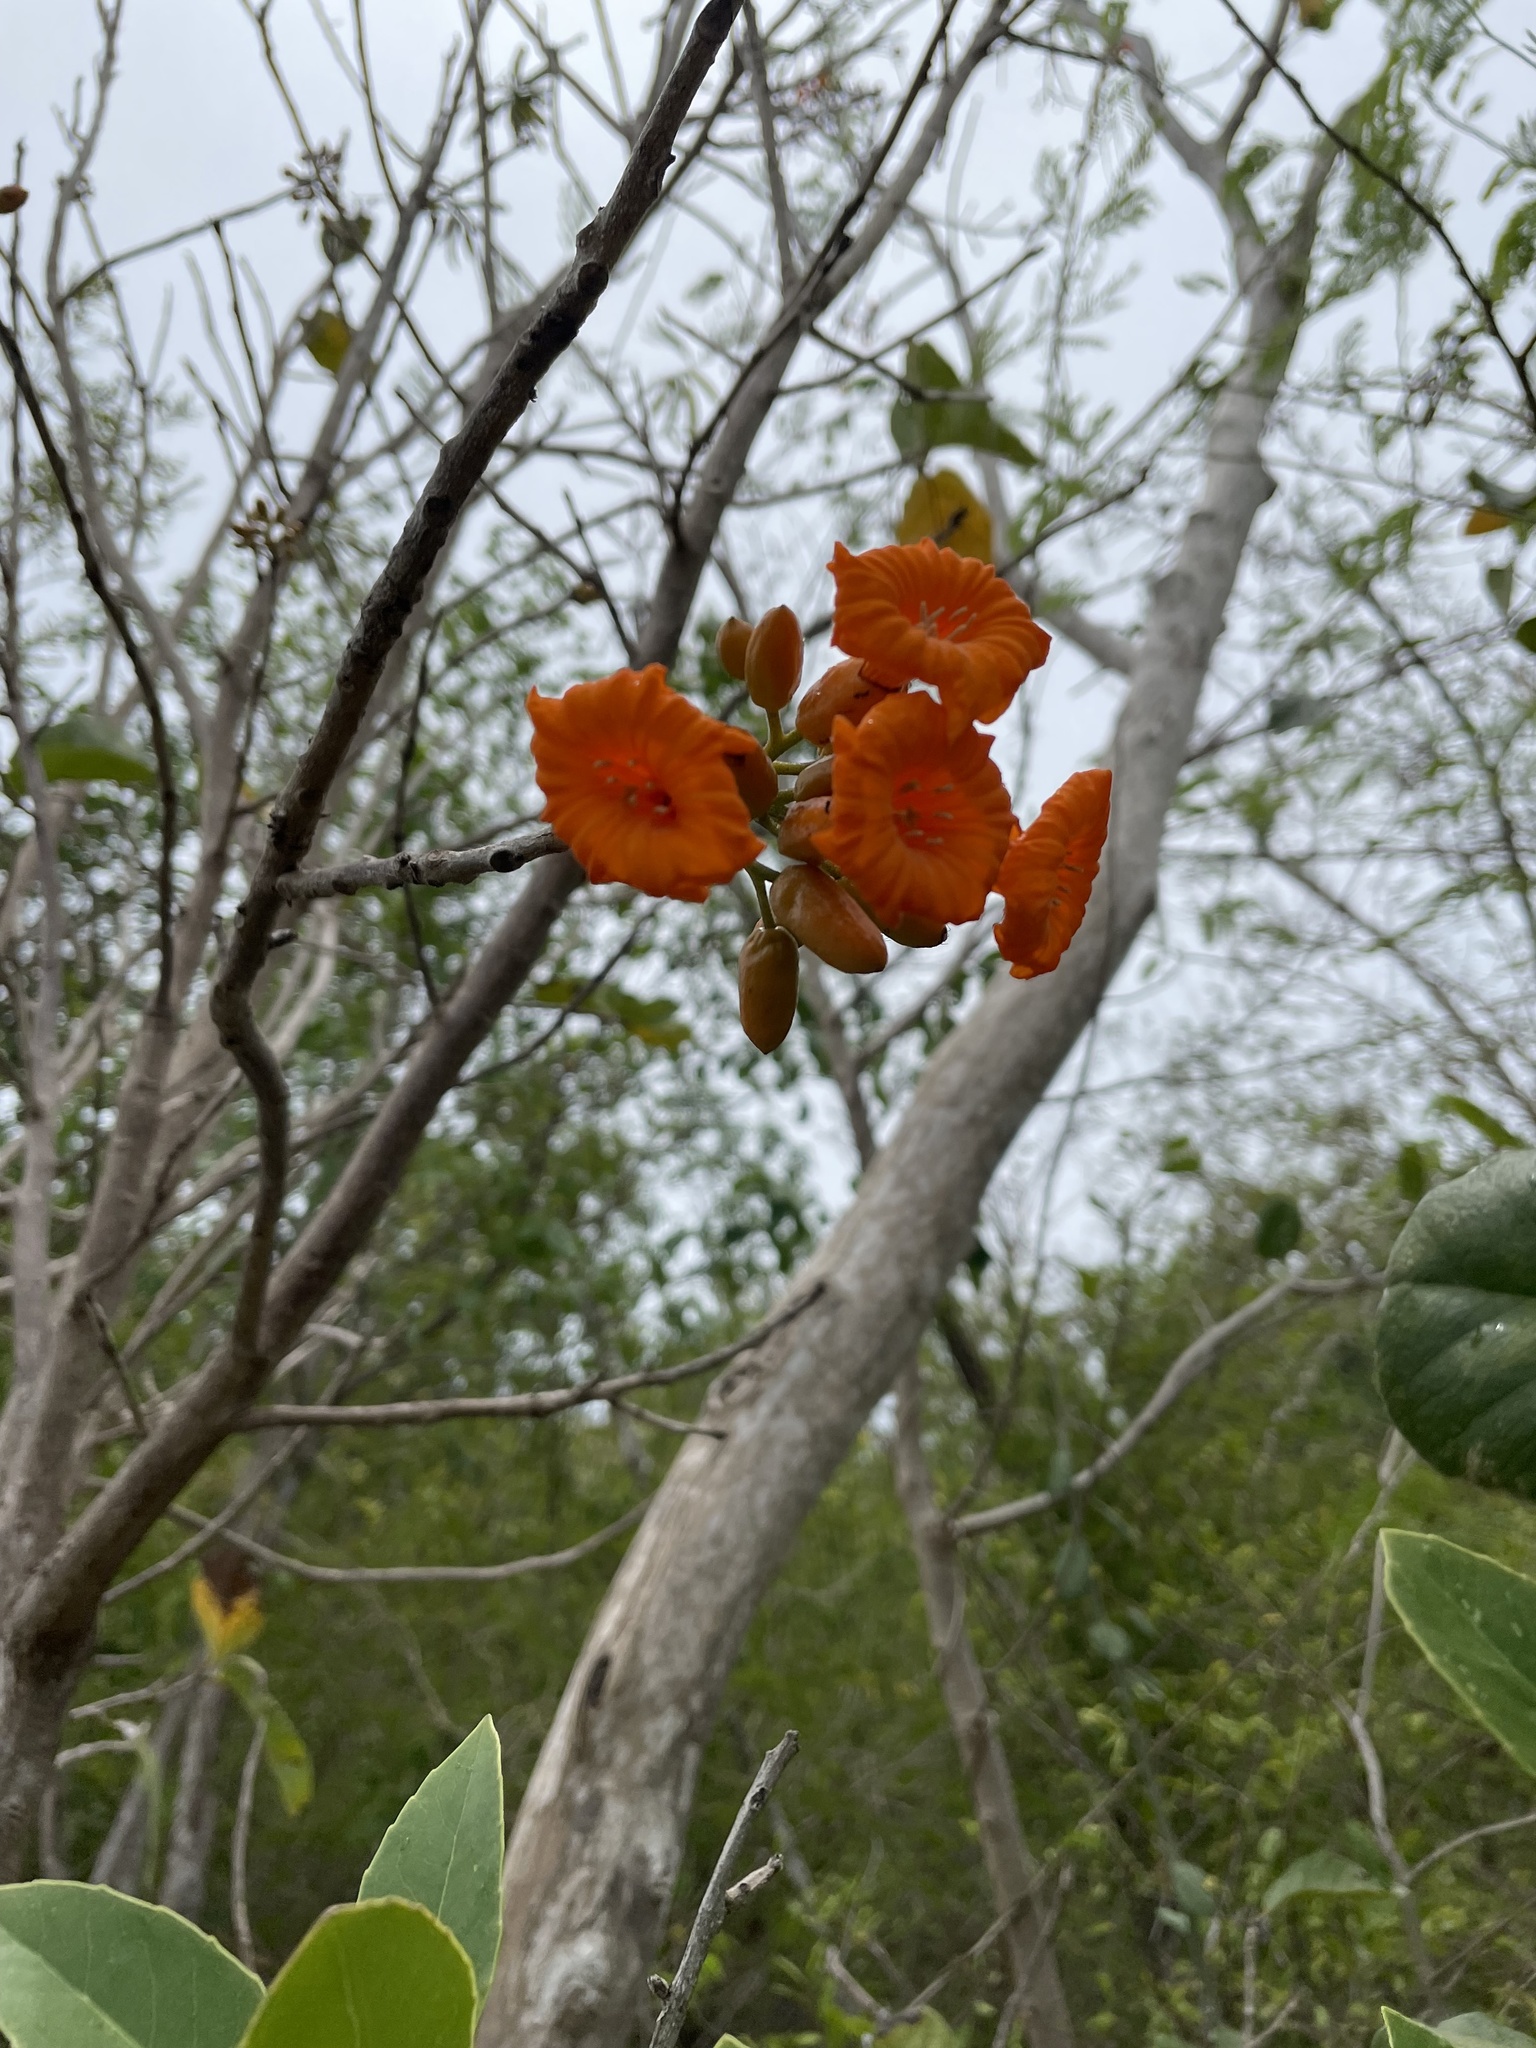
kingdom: Plantae
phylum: Tracheophyta
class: Magnoliopsida
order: Boraginales
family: Cordiaceae
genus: Cordia
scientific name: Cordia rickseckeri
